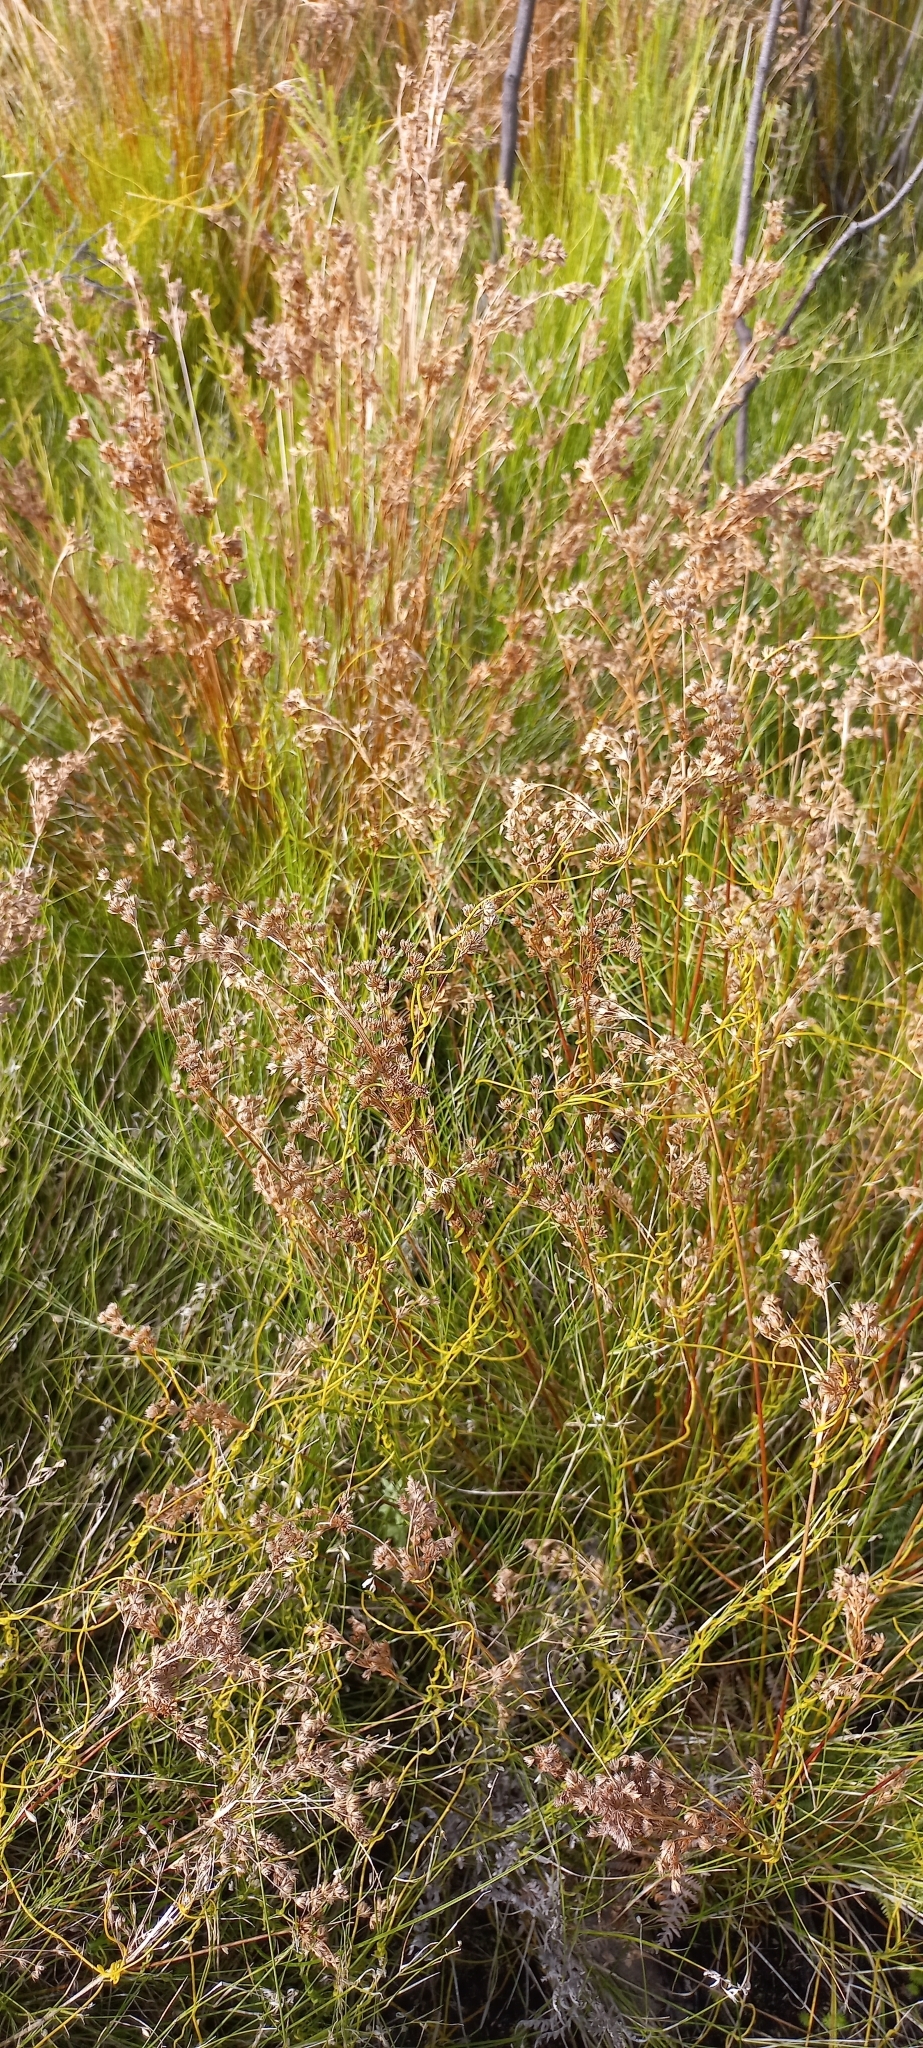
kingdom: Plantae
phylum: Tracheophyta
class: Liliopsida
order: Poales
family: Juncaceae
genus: Juncus
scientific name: Juncus capensis
